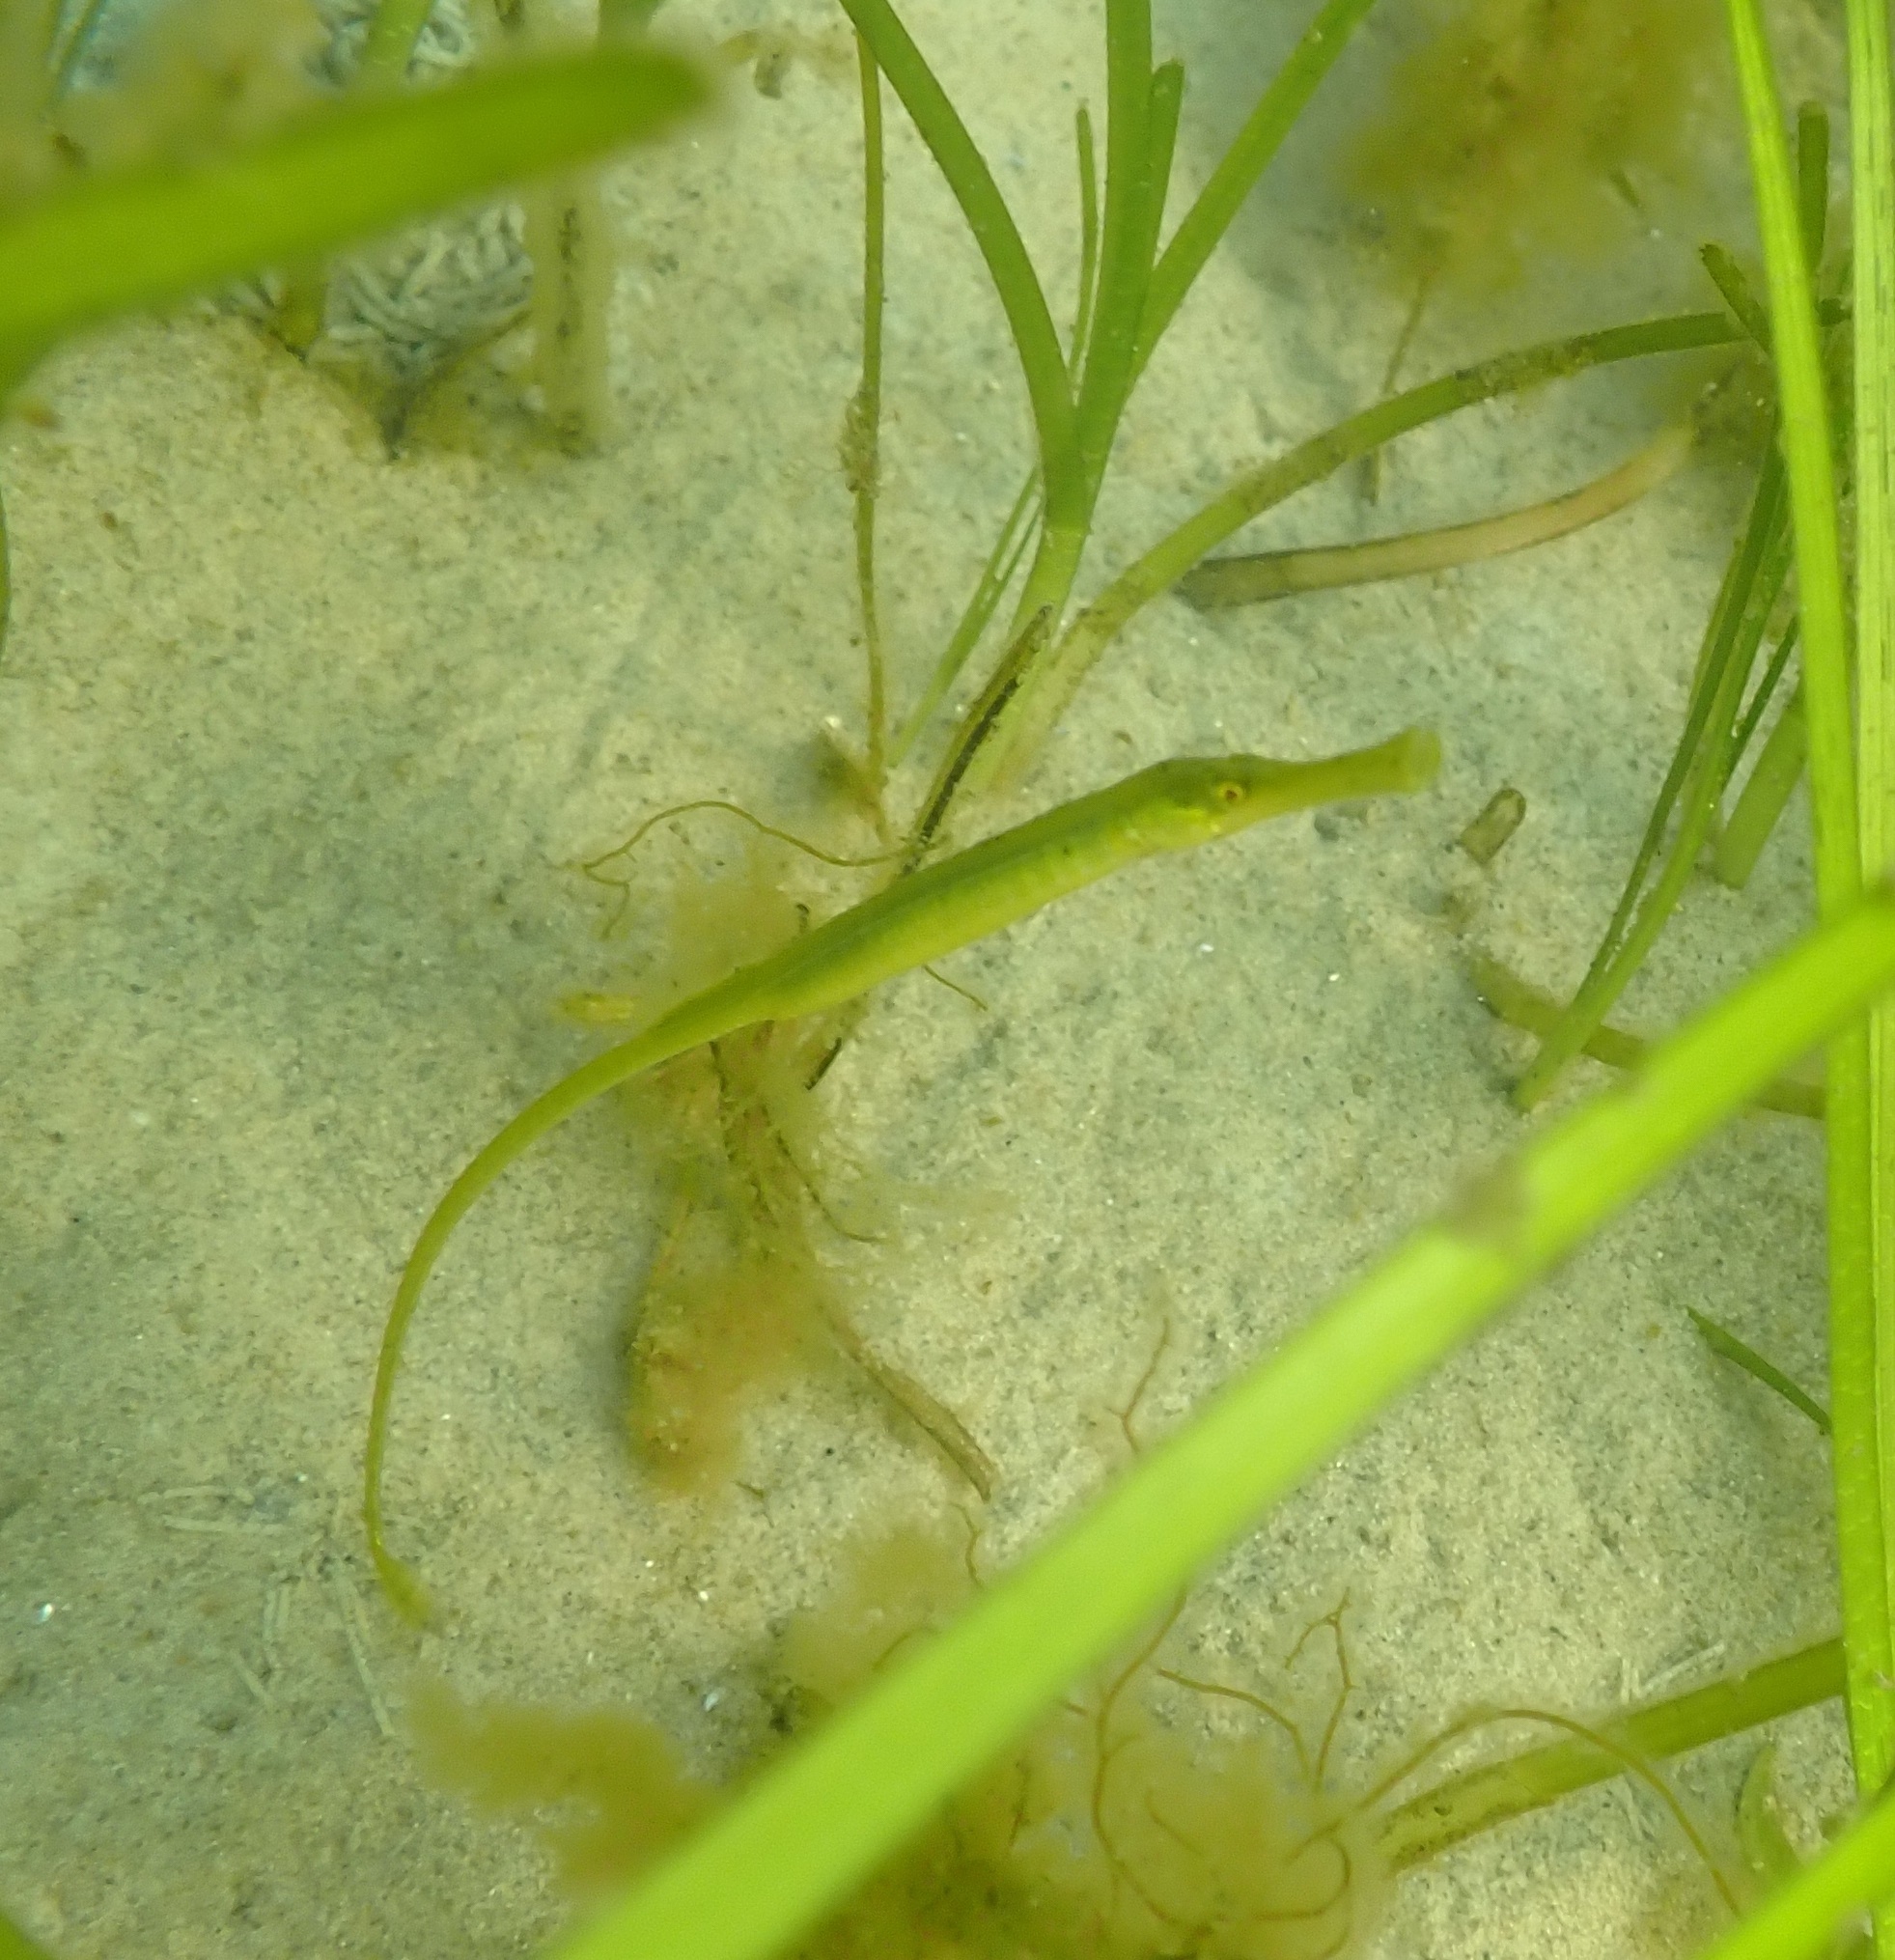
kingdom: Animalia
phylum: Chordata
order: Syngnathiformes
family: Syngnathidae
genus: Syngnathus
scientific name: Syngnathus typhle
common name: Deep-snouted pipefish
